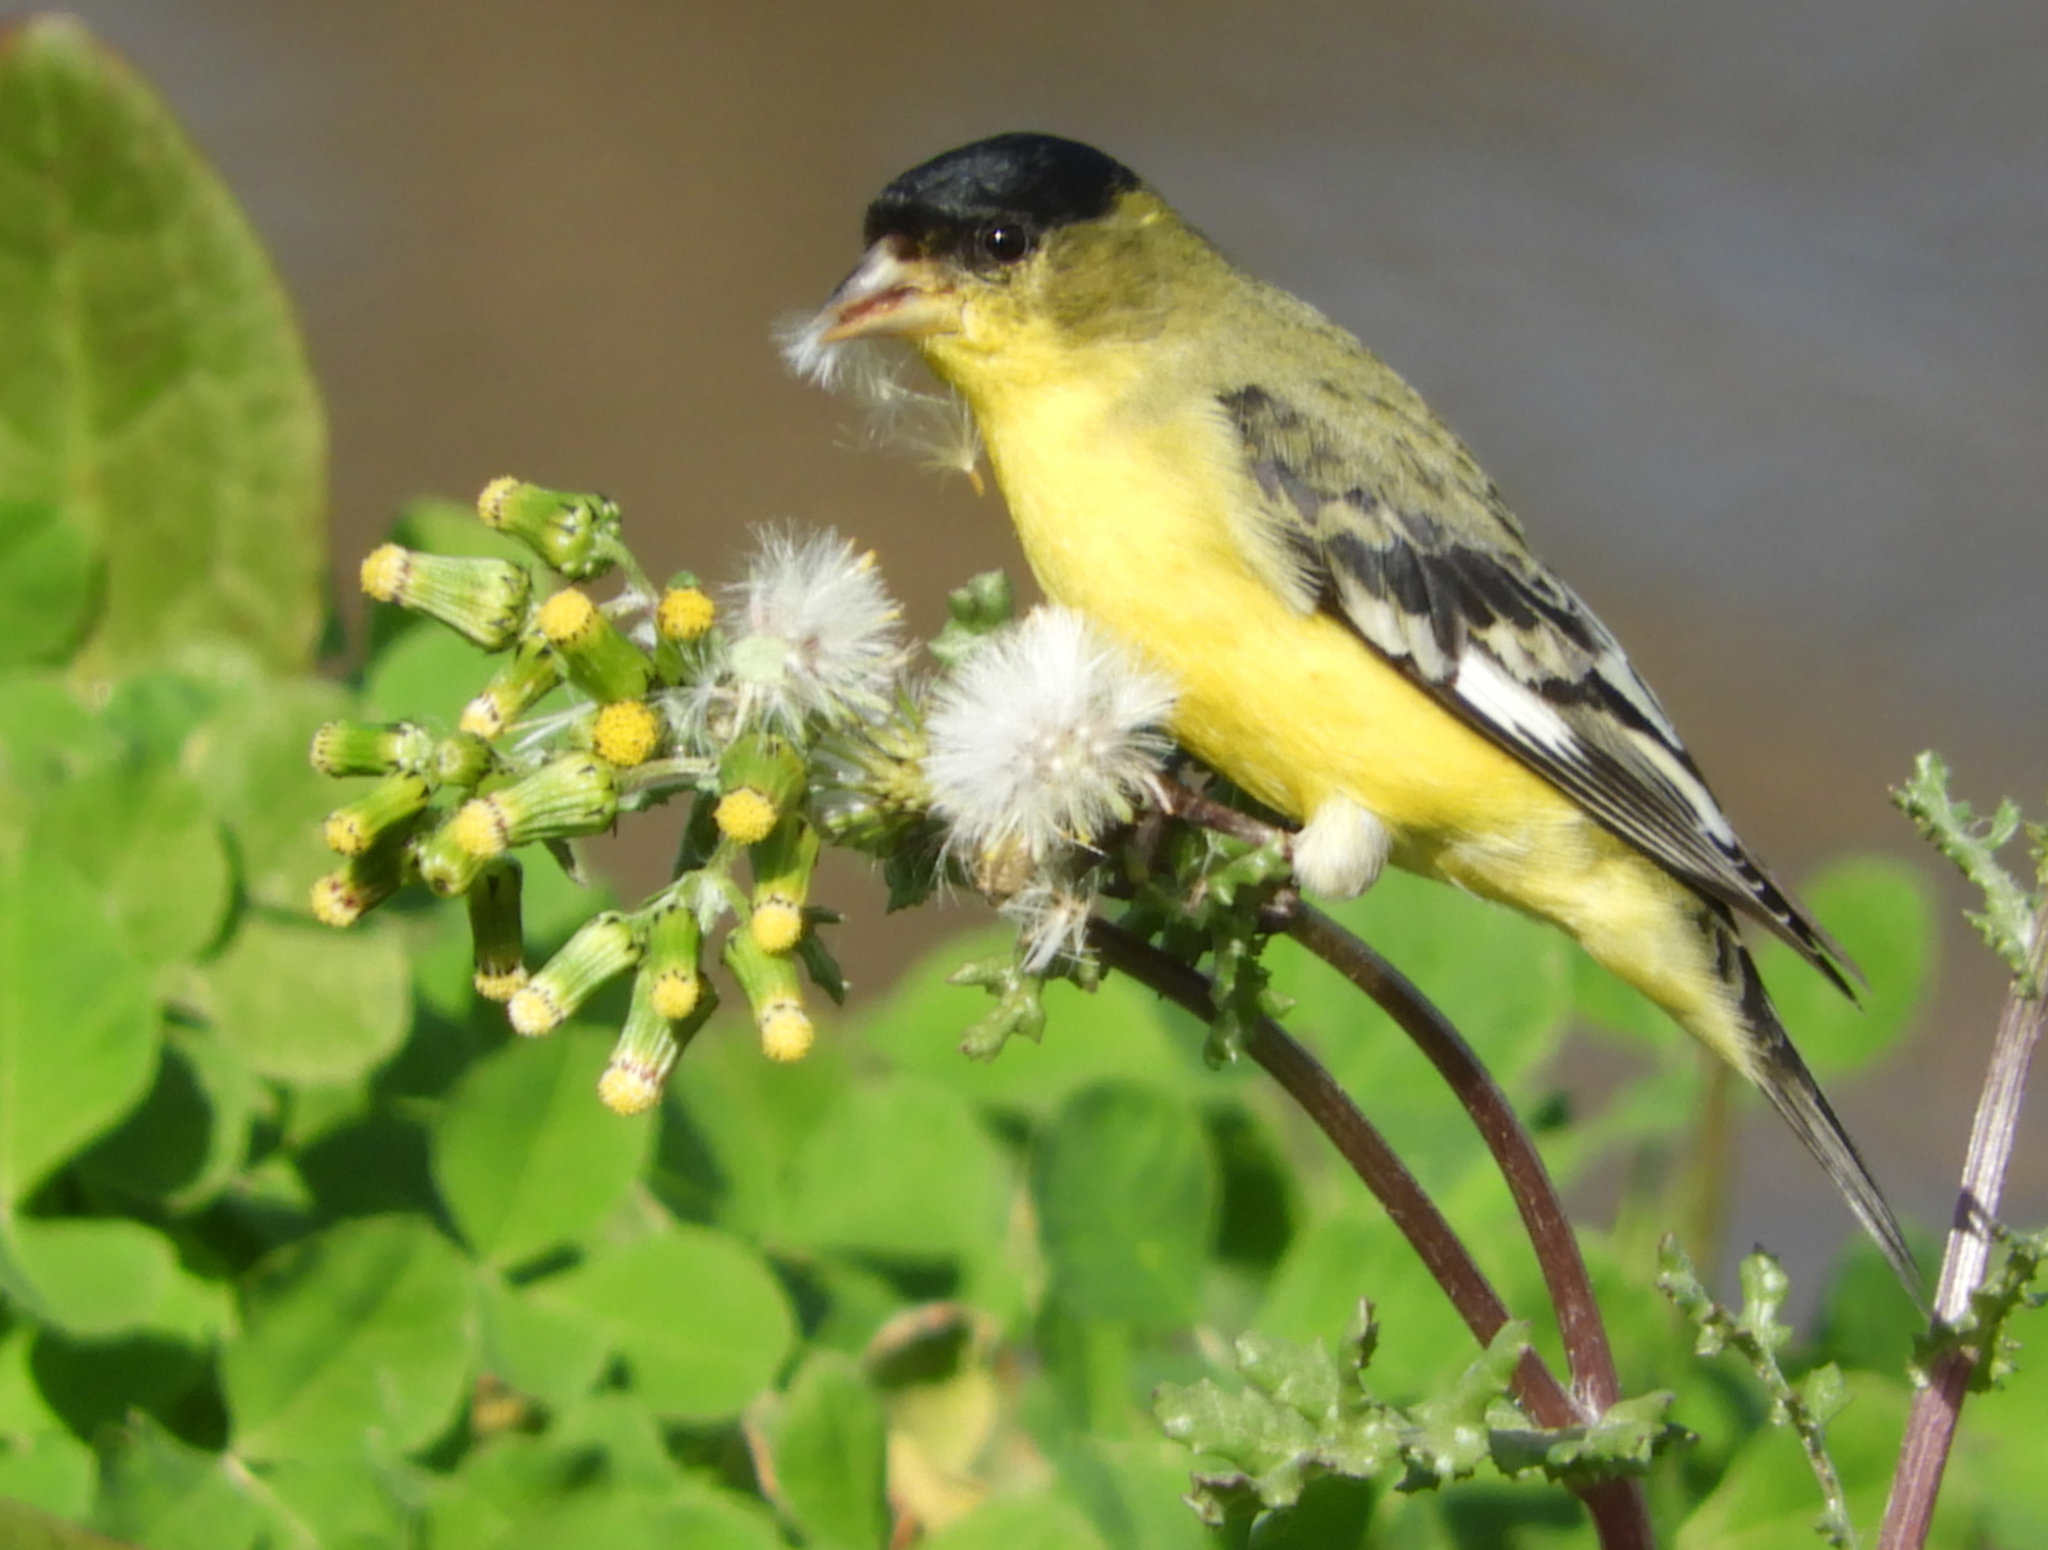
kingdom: Animalia
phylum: Chordata
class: Aves
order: Passeriformes
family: Fringillidae
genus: Spinus
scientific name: Spinus psaltria
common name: Lesser goldfinch
